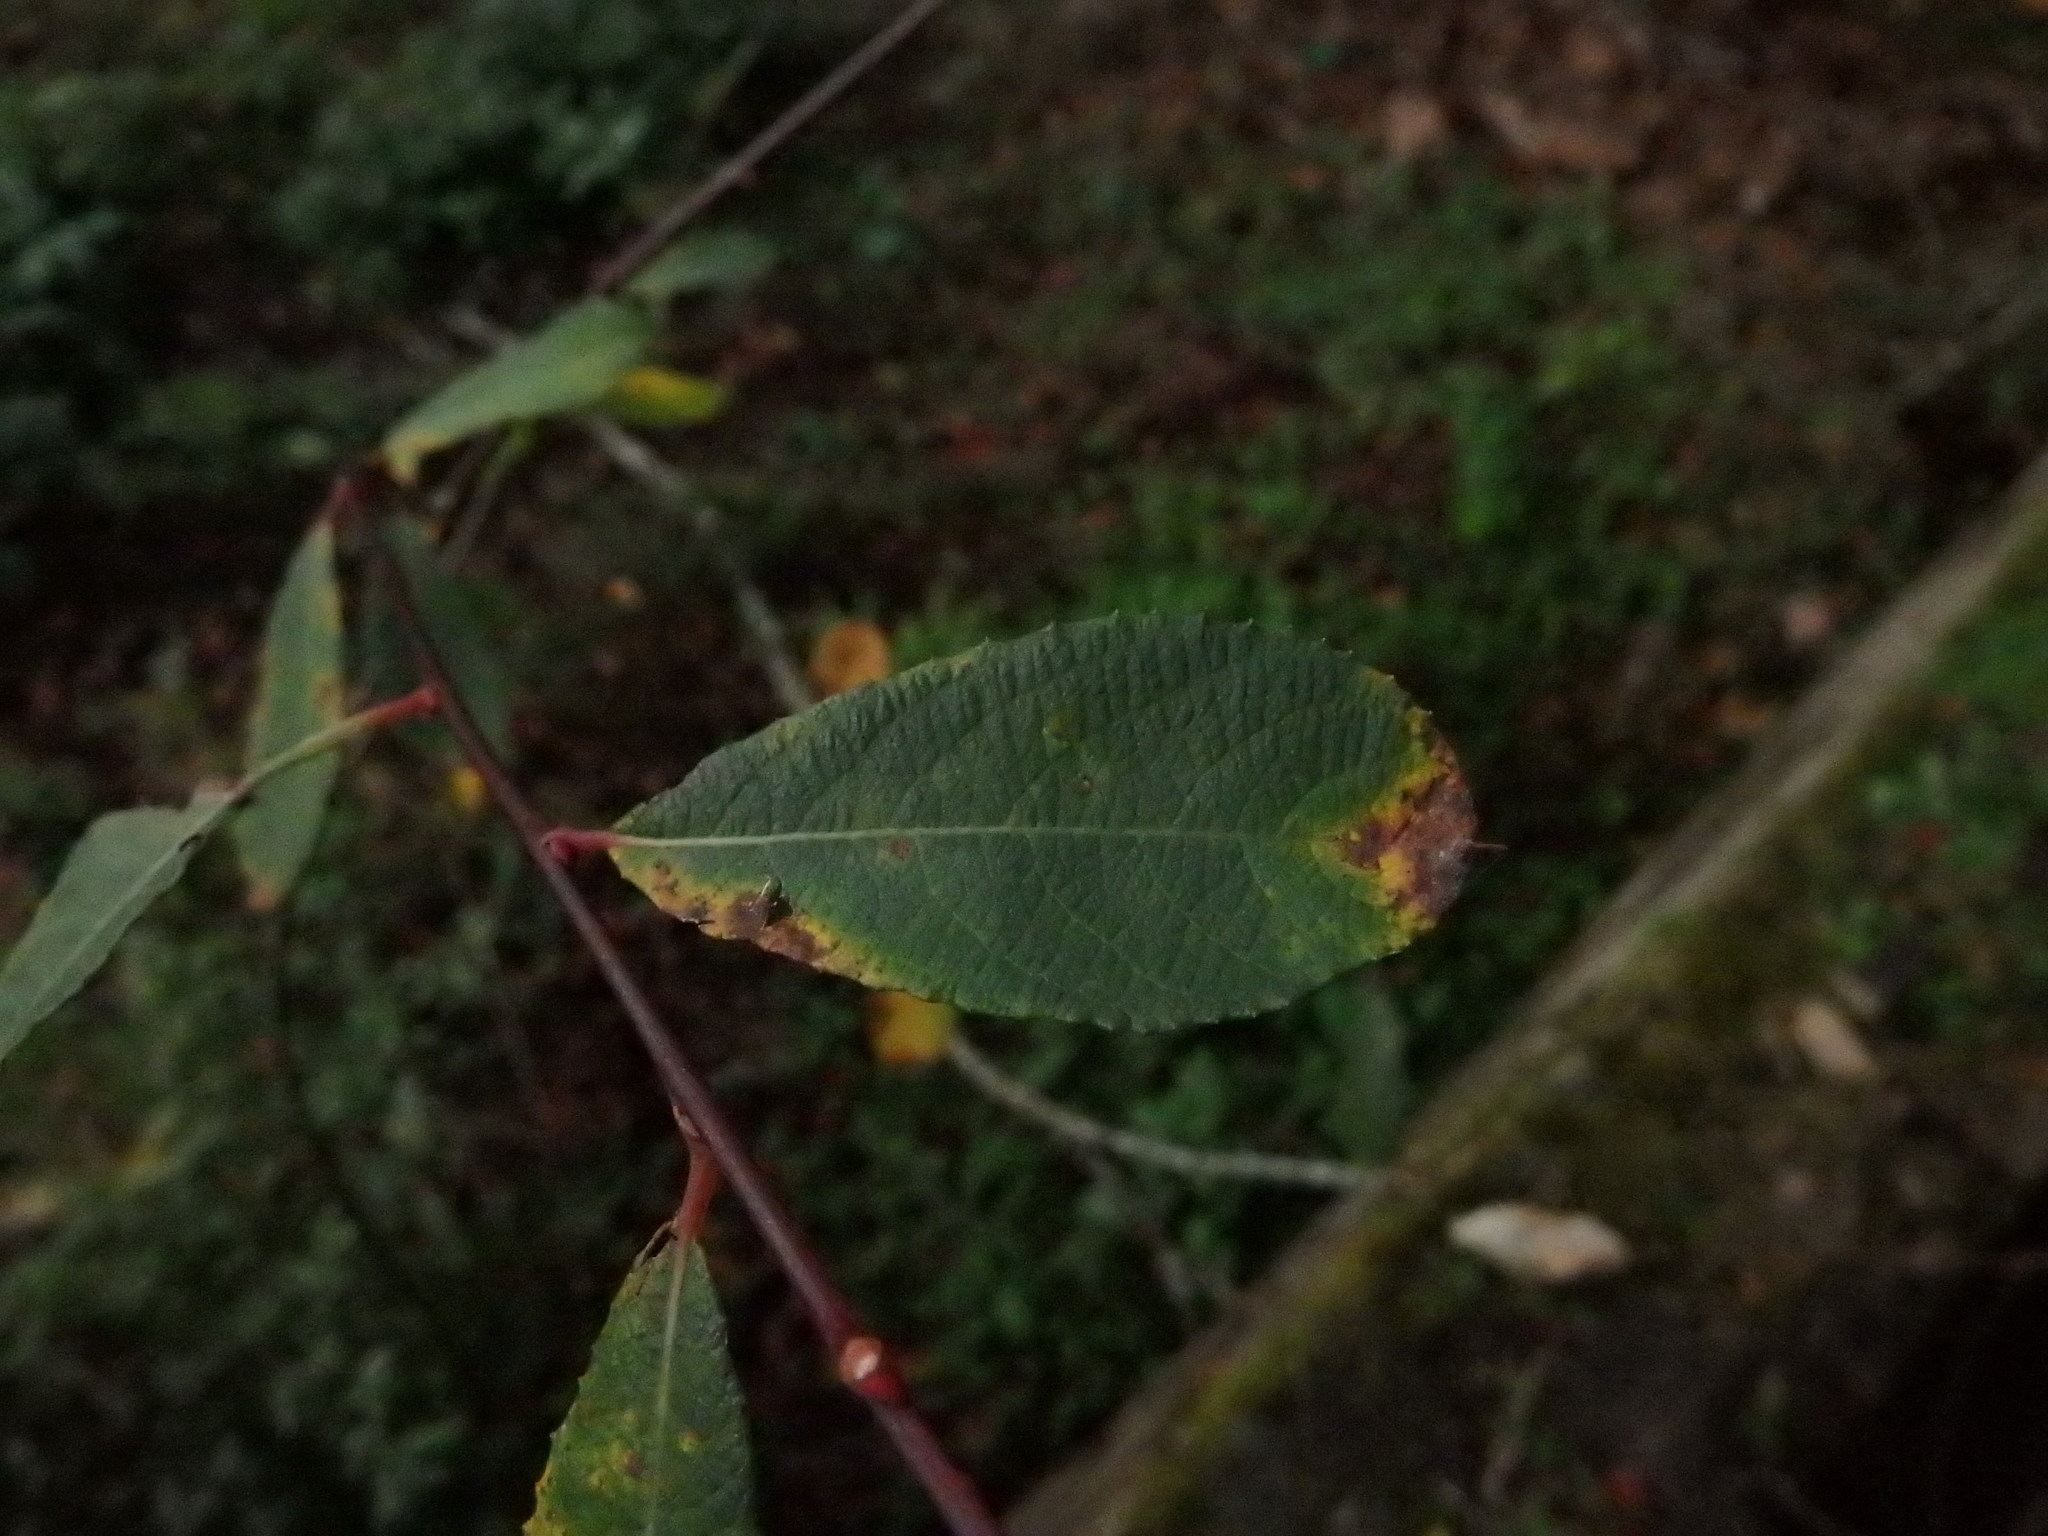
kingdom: Plantae
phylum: Tracheophyta
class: Magnoliopsida
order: Malpighiales
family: Salicaceae
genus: Salix
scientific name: Salix atrocinerea
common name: Rusty willow
